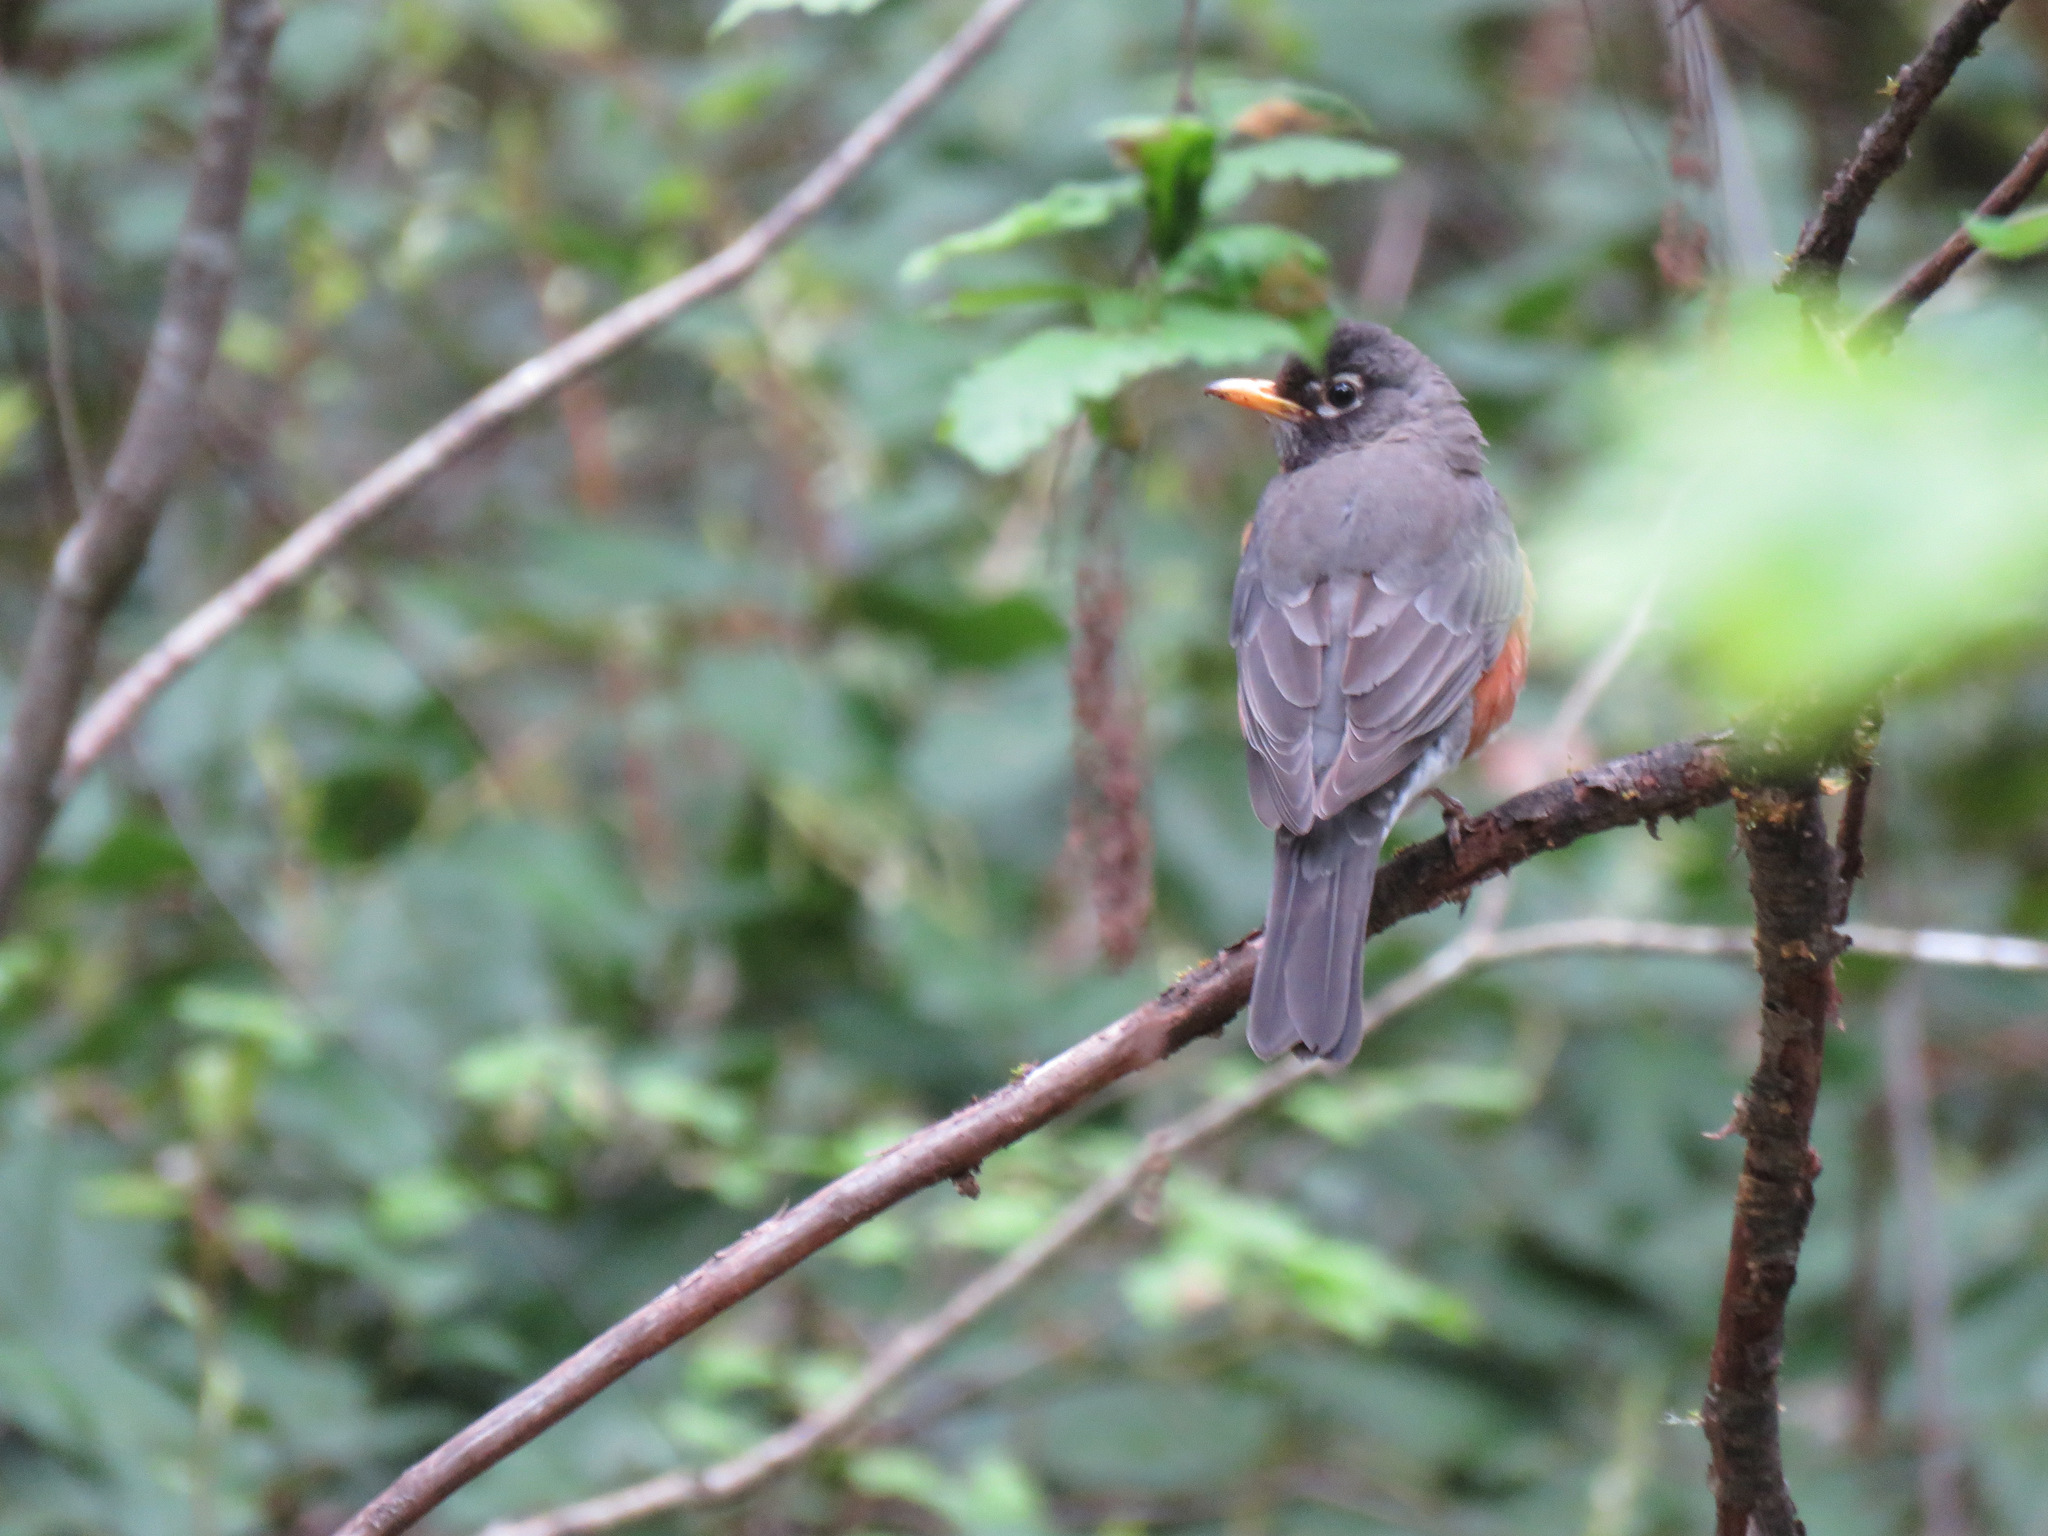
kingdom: Animalia
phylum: Chordata
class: Aves
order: Passeriformes
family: Turdidae
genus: Turdus
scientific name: Turdus migratorius
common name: American robin
